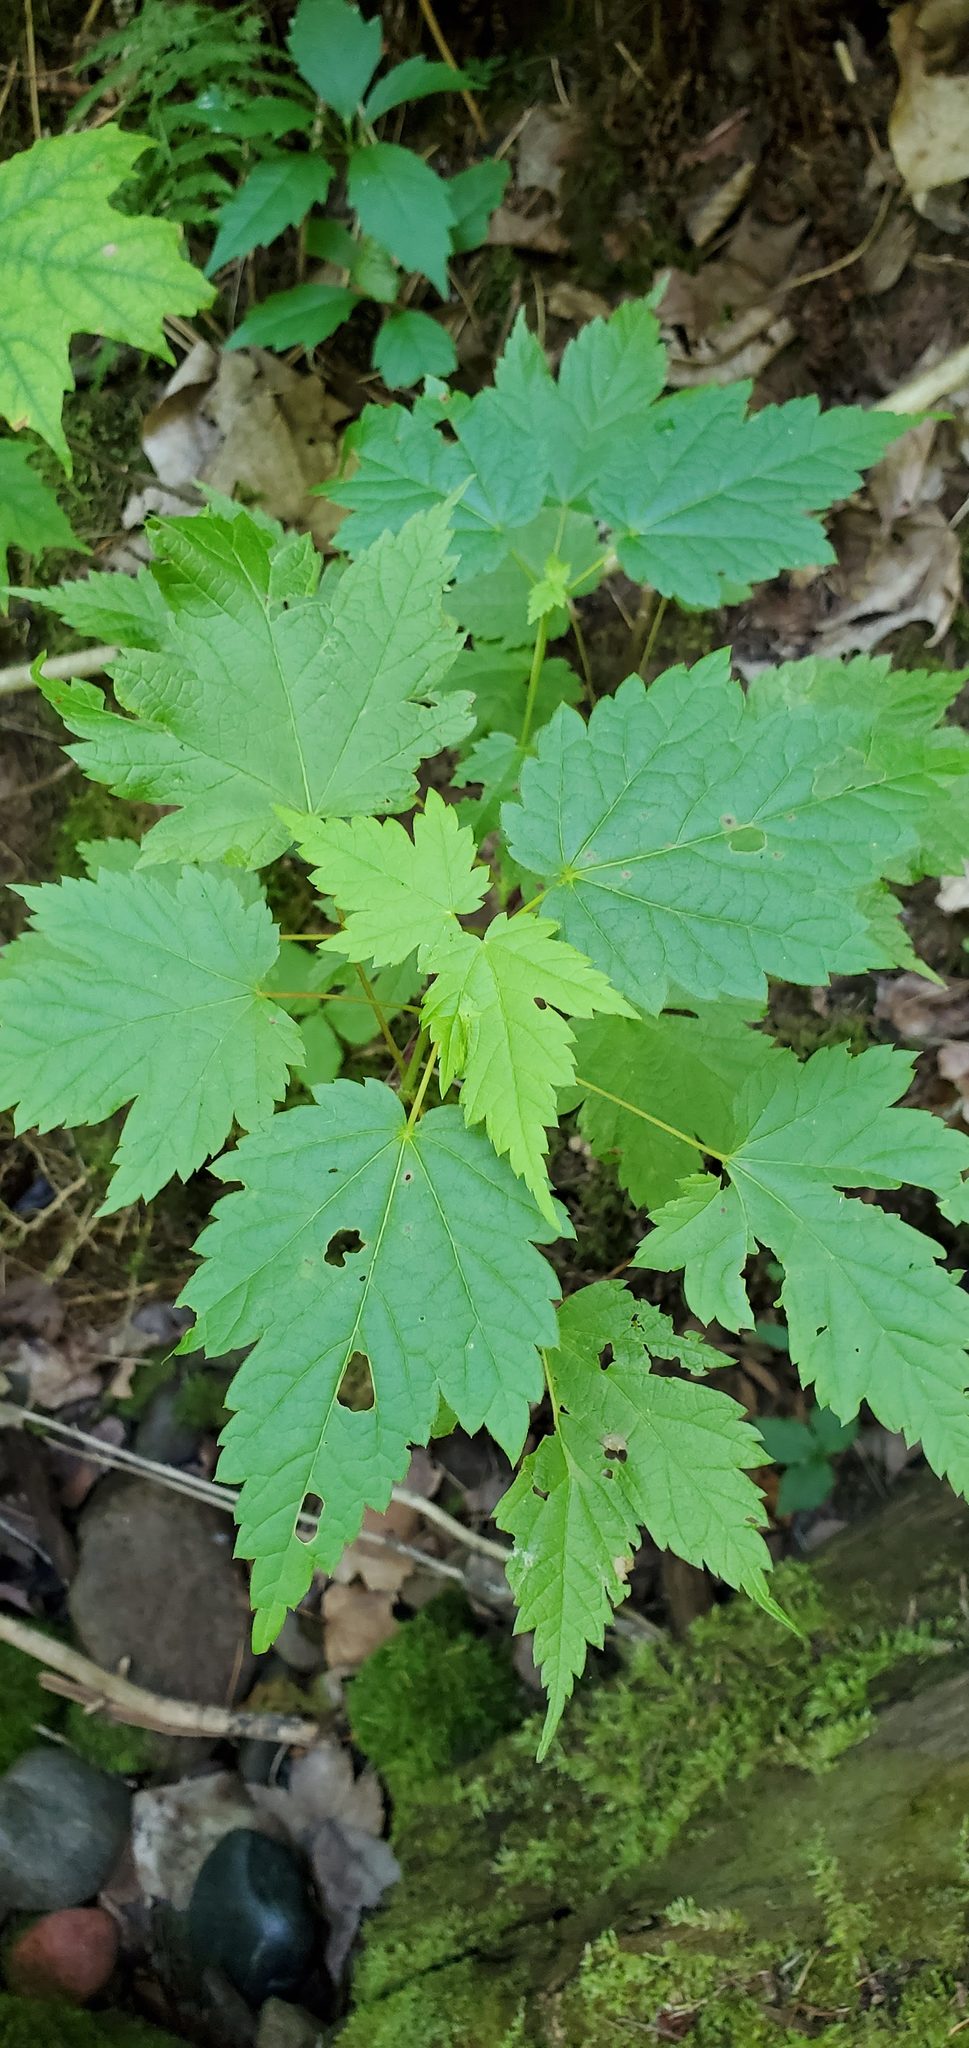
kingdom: Plantae
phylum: Tracheophyta
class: Magnoliopsida
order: Sapindales
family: Sapindaceae
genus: Acer
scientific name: Acer spicatum
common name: Mountain maple
